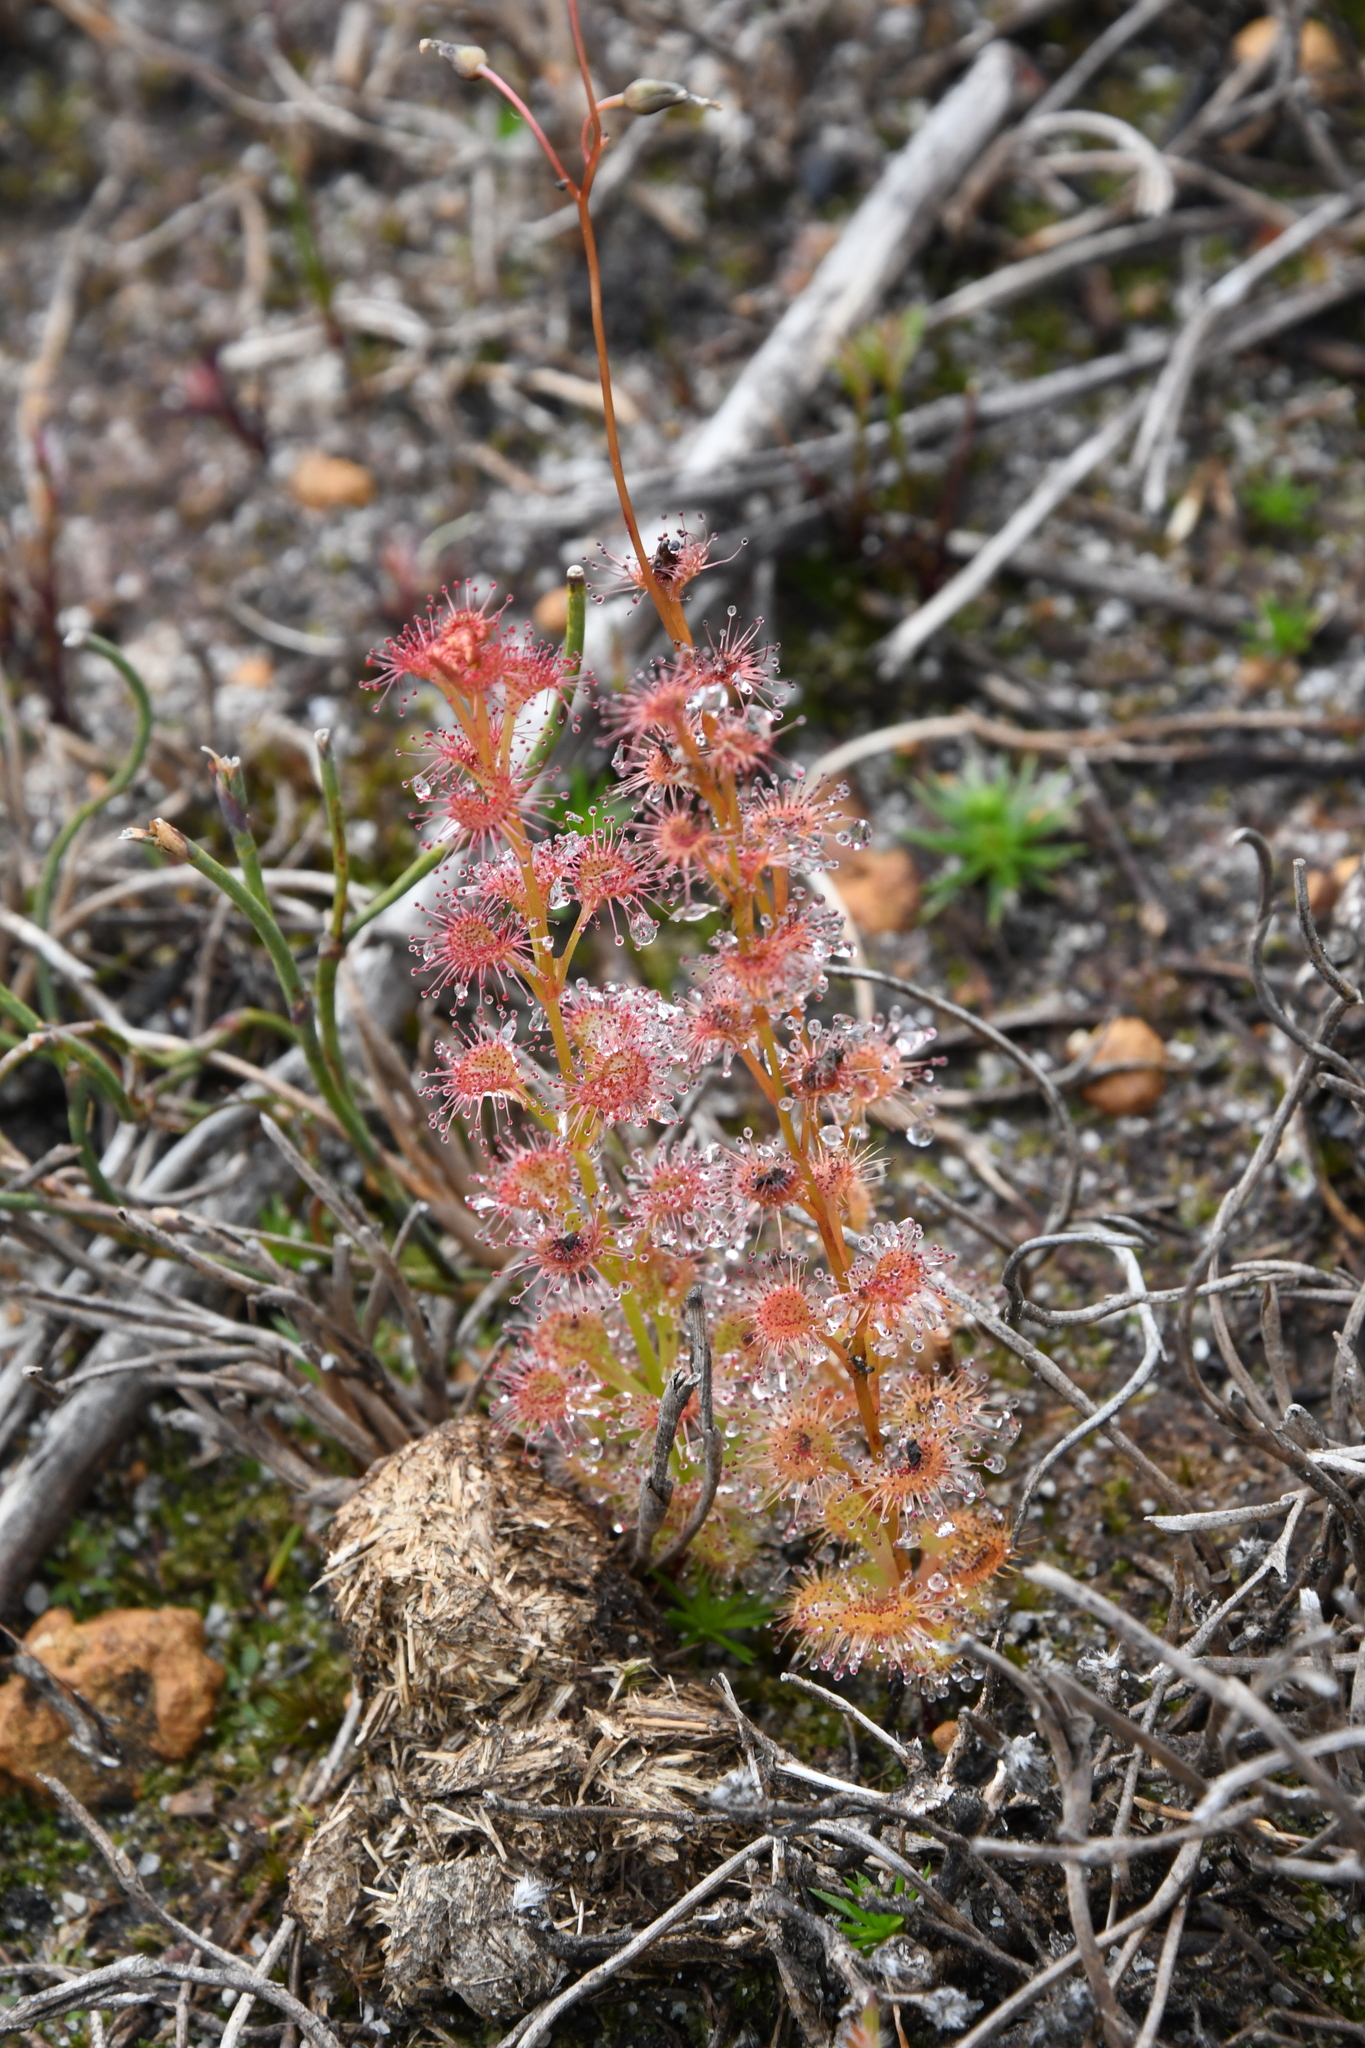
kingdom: Plantae
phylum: Tracheophyta
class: Magnoliopsida
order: Caryophyllales
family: Droseraceae
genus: Drosera
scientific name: Drosera platypoda
